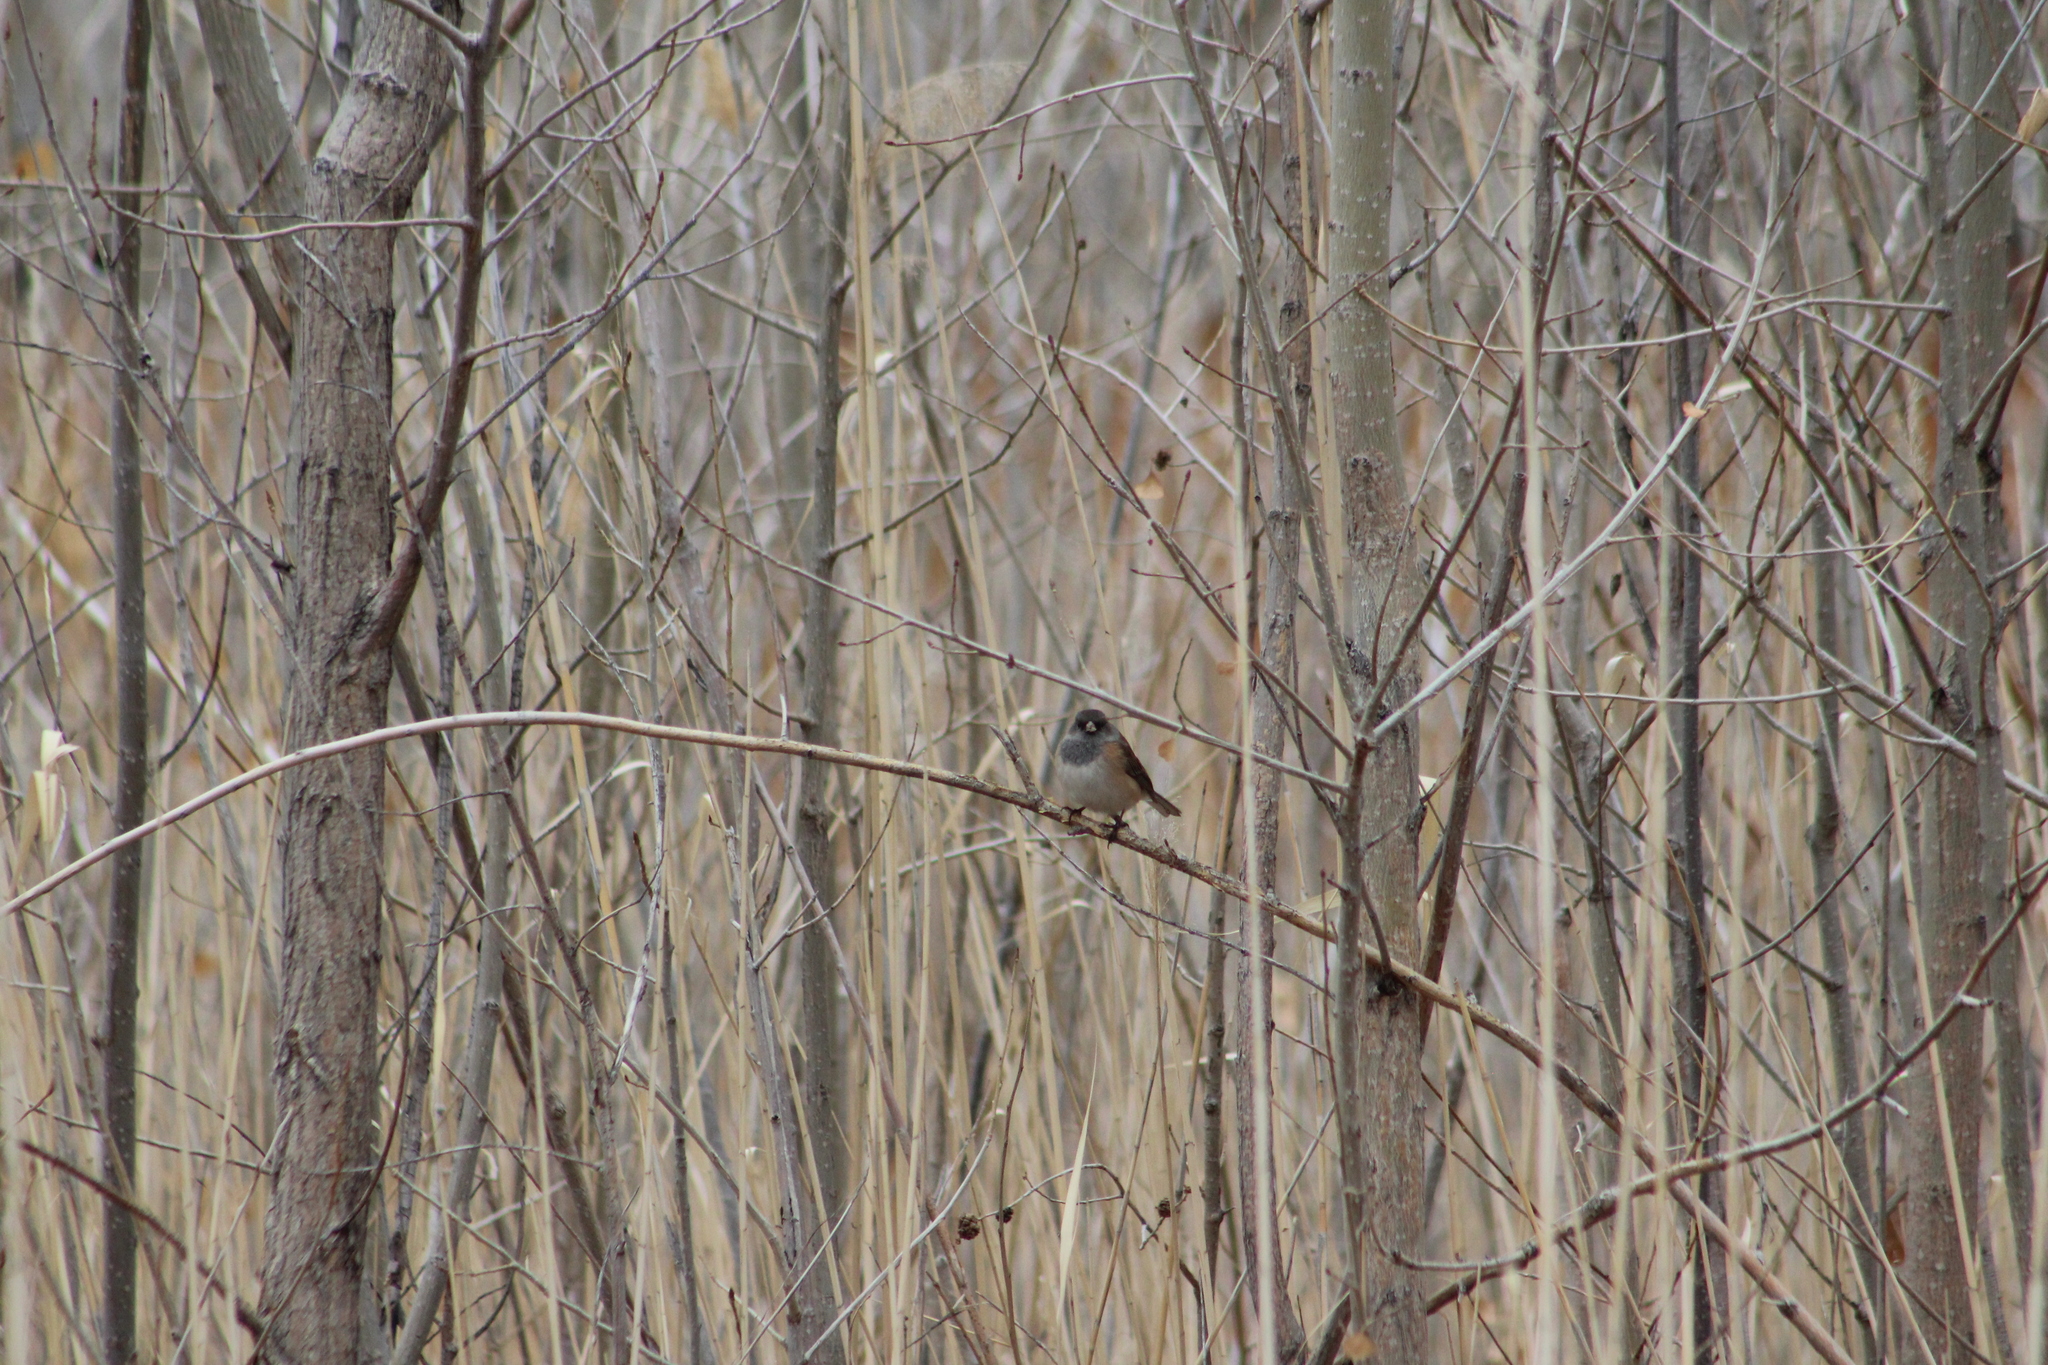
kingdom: Animalia
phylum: Chordata
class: Aves
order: Passeriformes
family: Passerellidae
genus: Junco
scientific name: Junco hyemalis
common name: Dark-eyed junco
